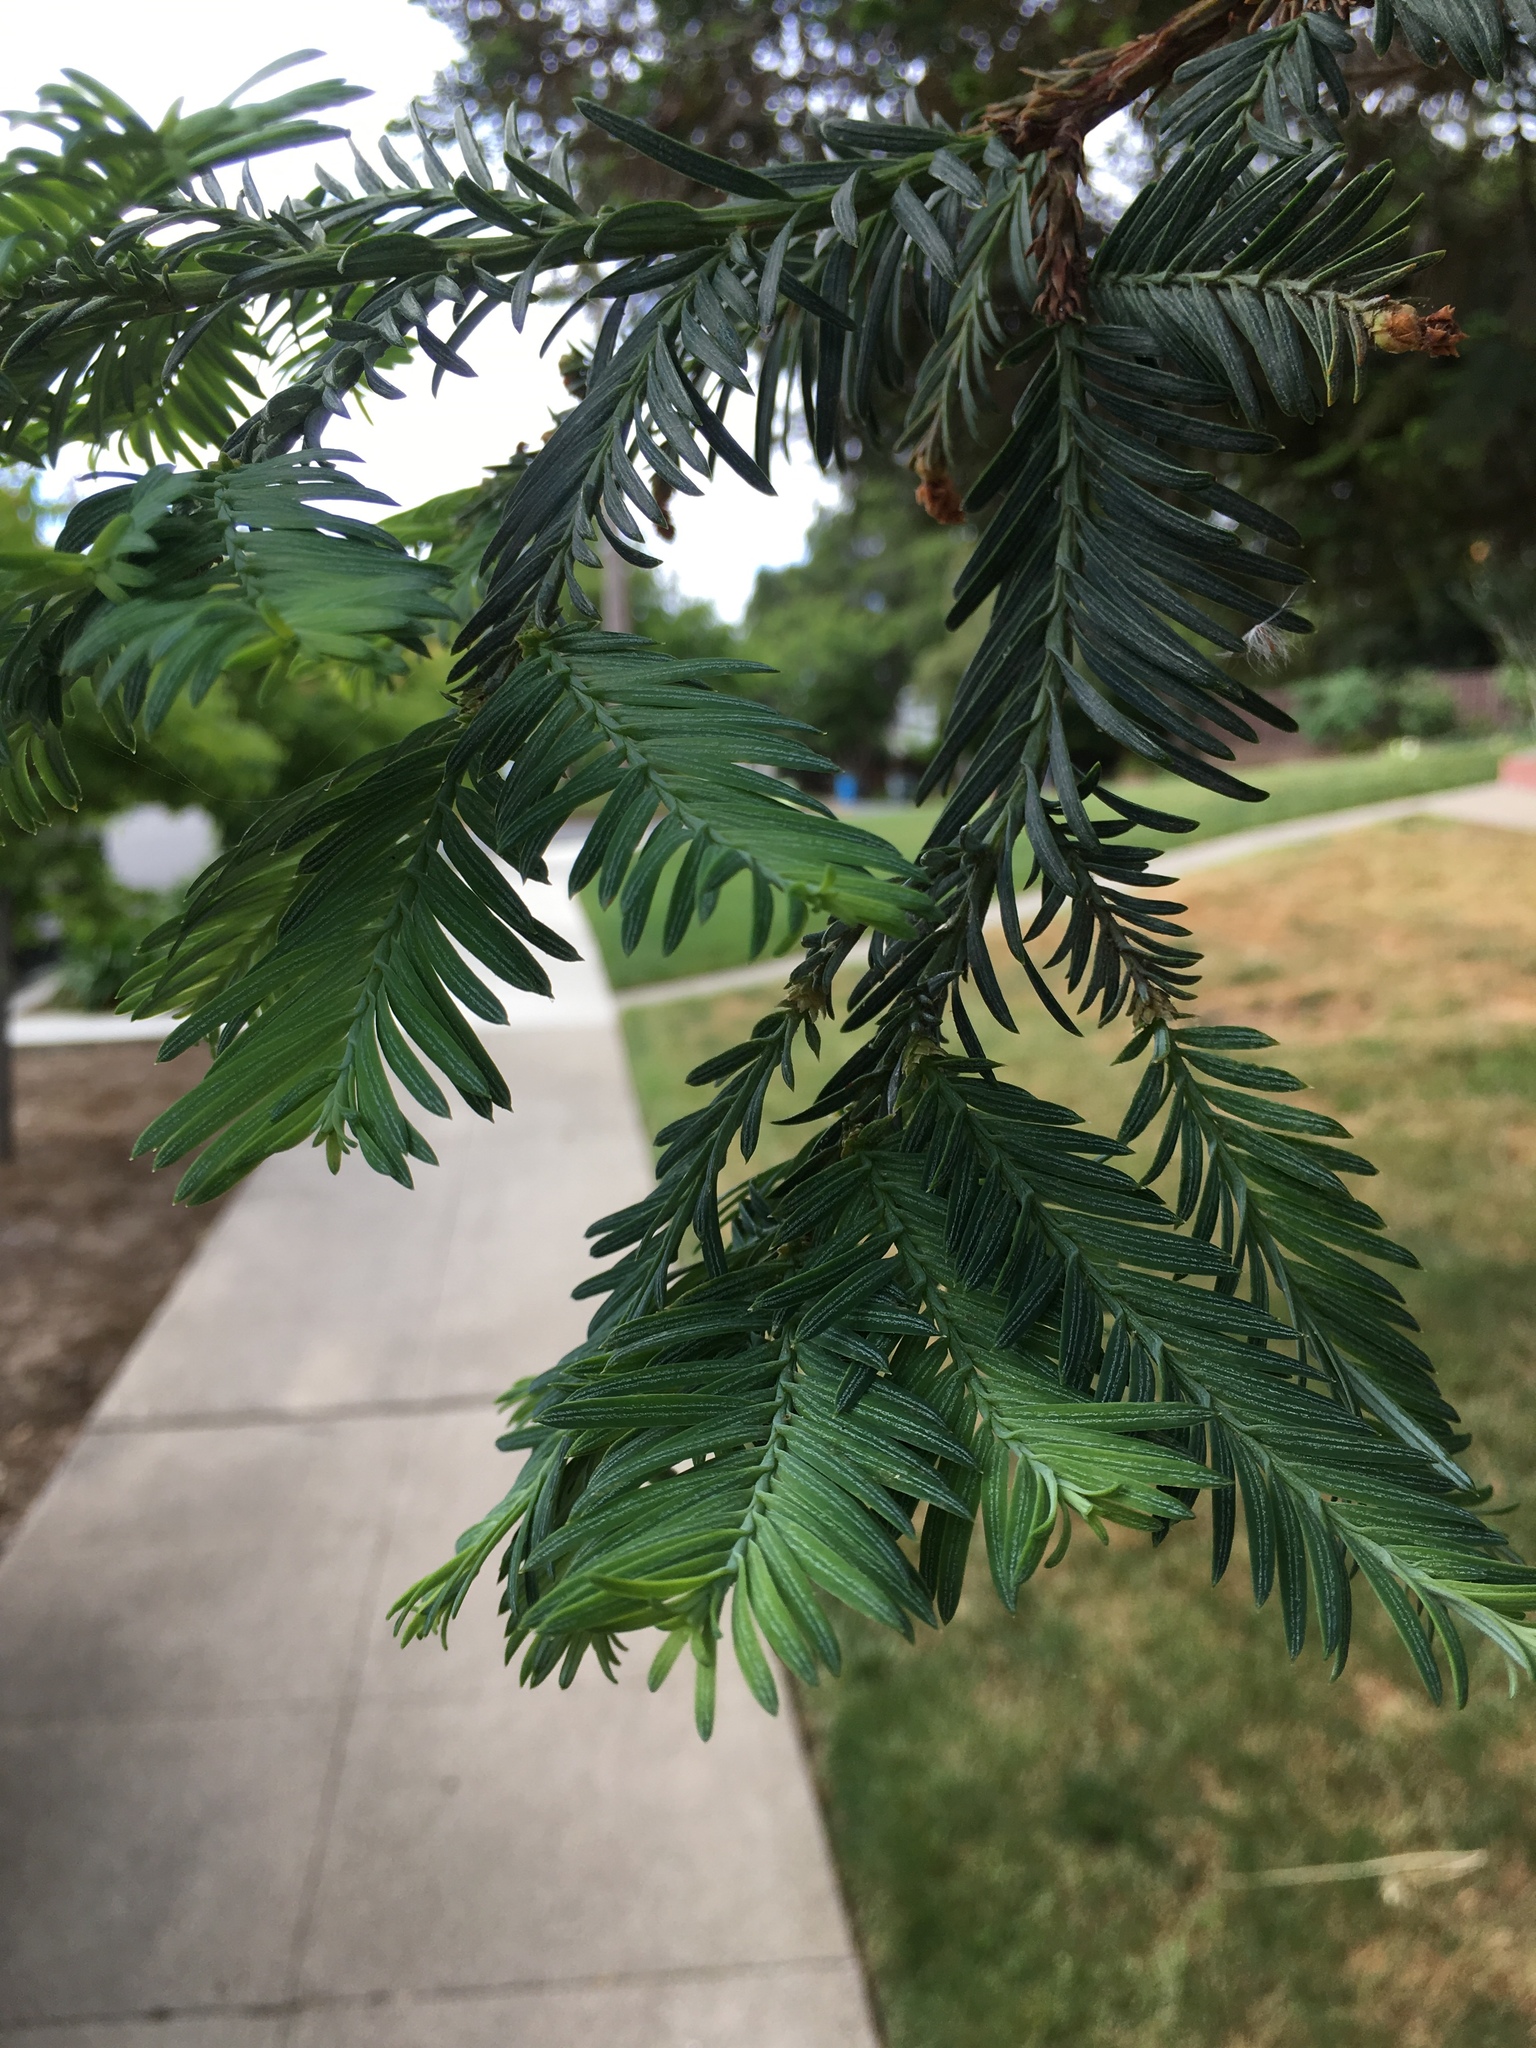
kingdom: Plantae
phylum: Tracheophyta
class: Pinopsida
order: Pinales
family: Cupressaceae
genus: Sequoia
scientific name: Sequoia sempervirens
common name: Coast redwood
